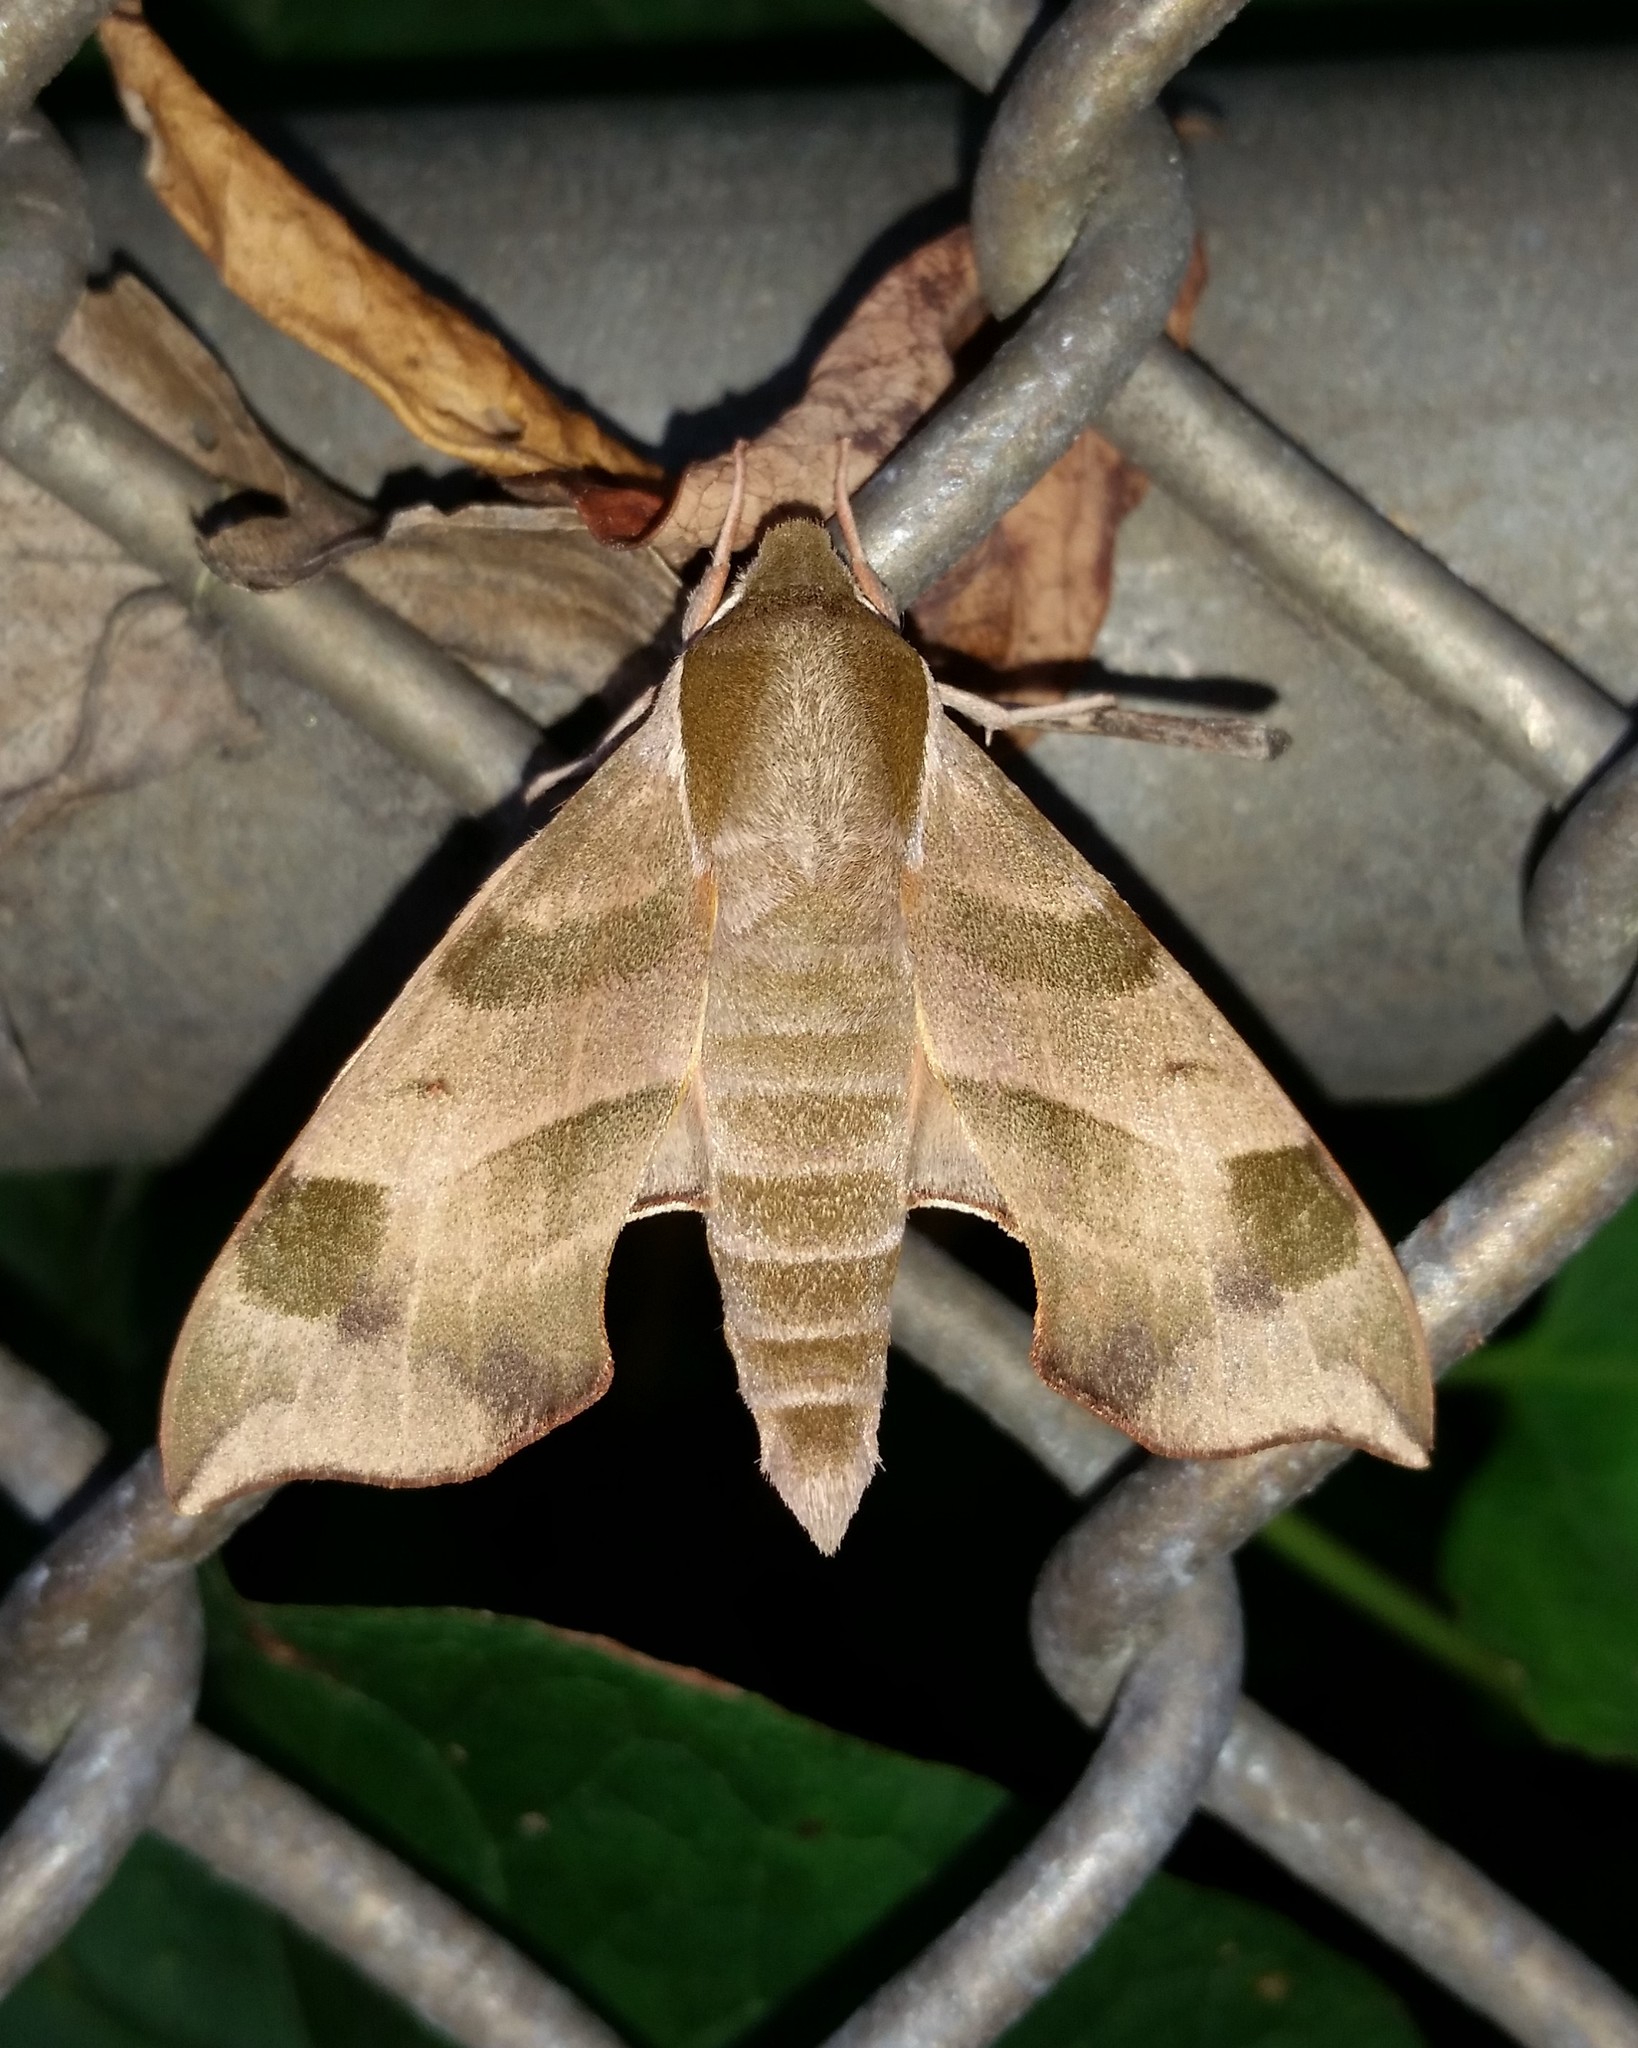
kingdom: Animalia
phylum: Arthropoda
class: Insecta
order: Lepidoptera
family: Sphingidae
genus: Darapsa
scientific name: Darapsa myron
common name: Hog sphinx
